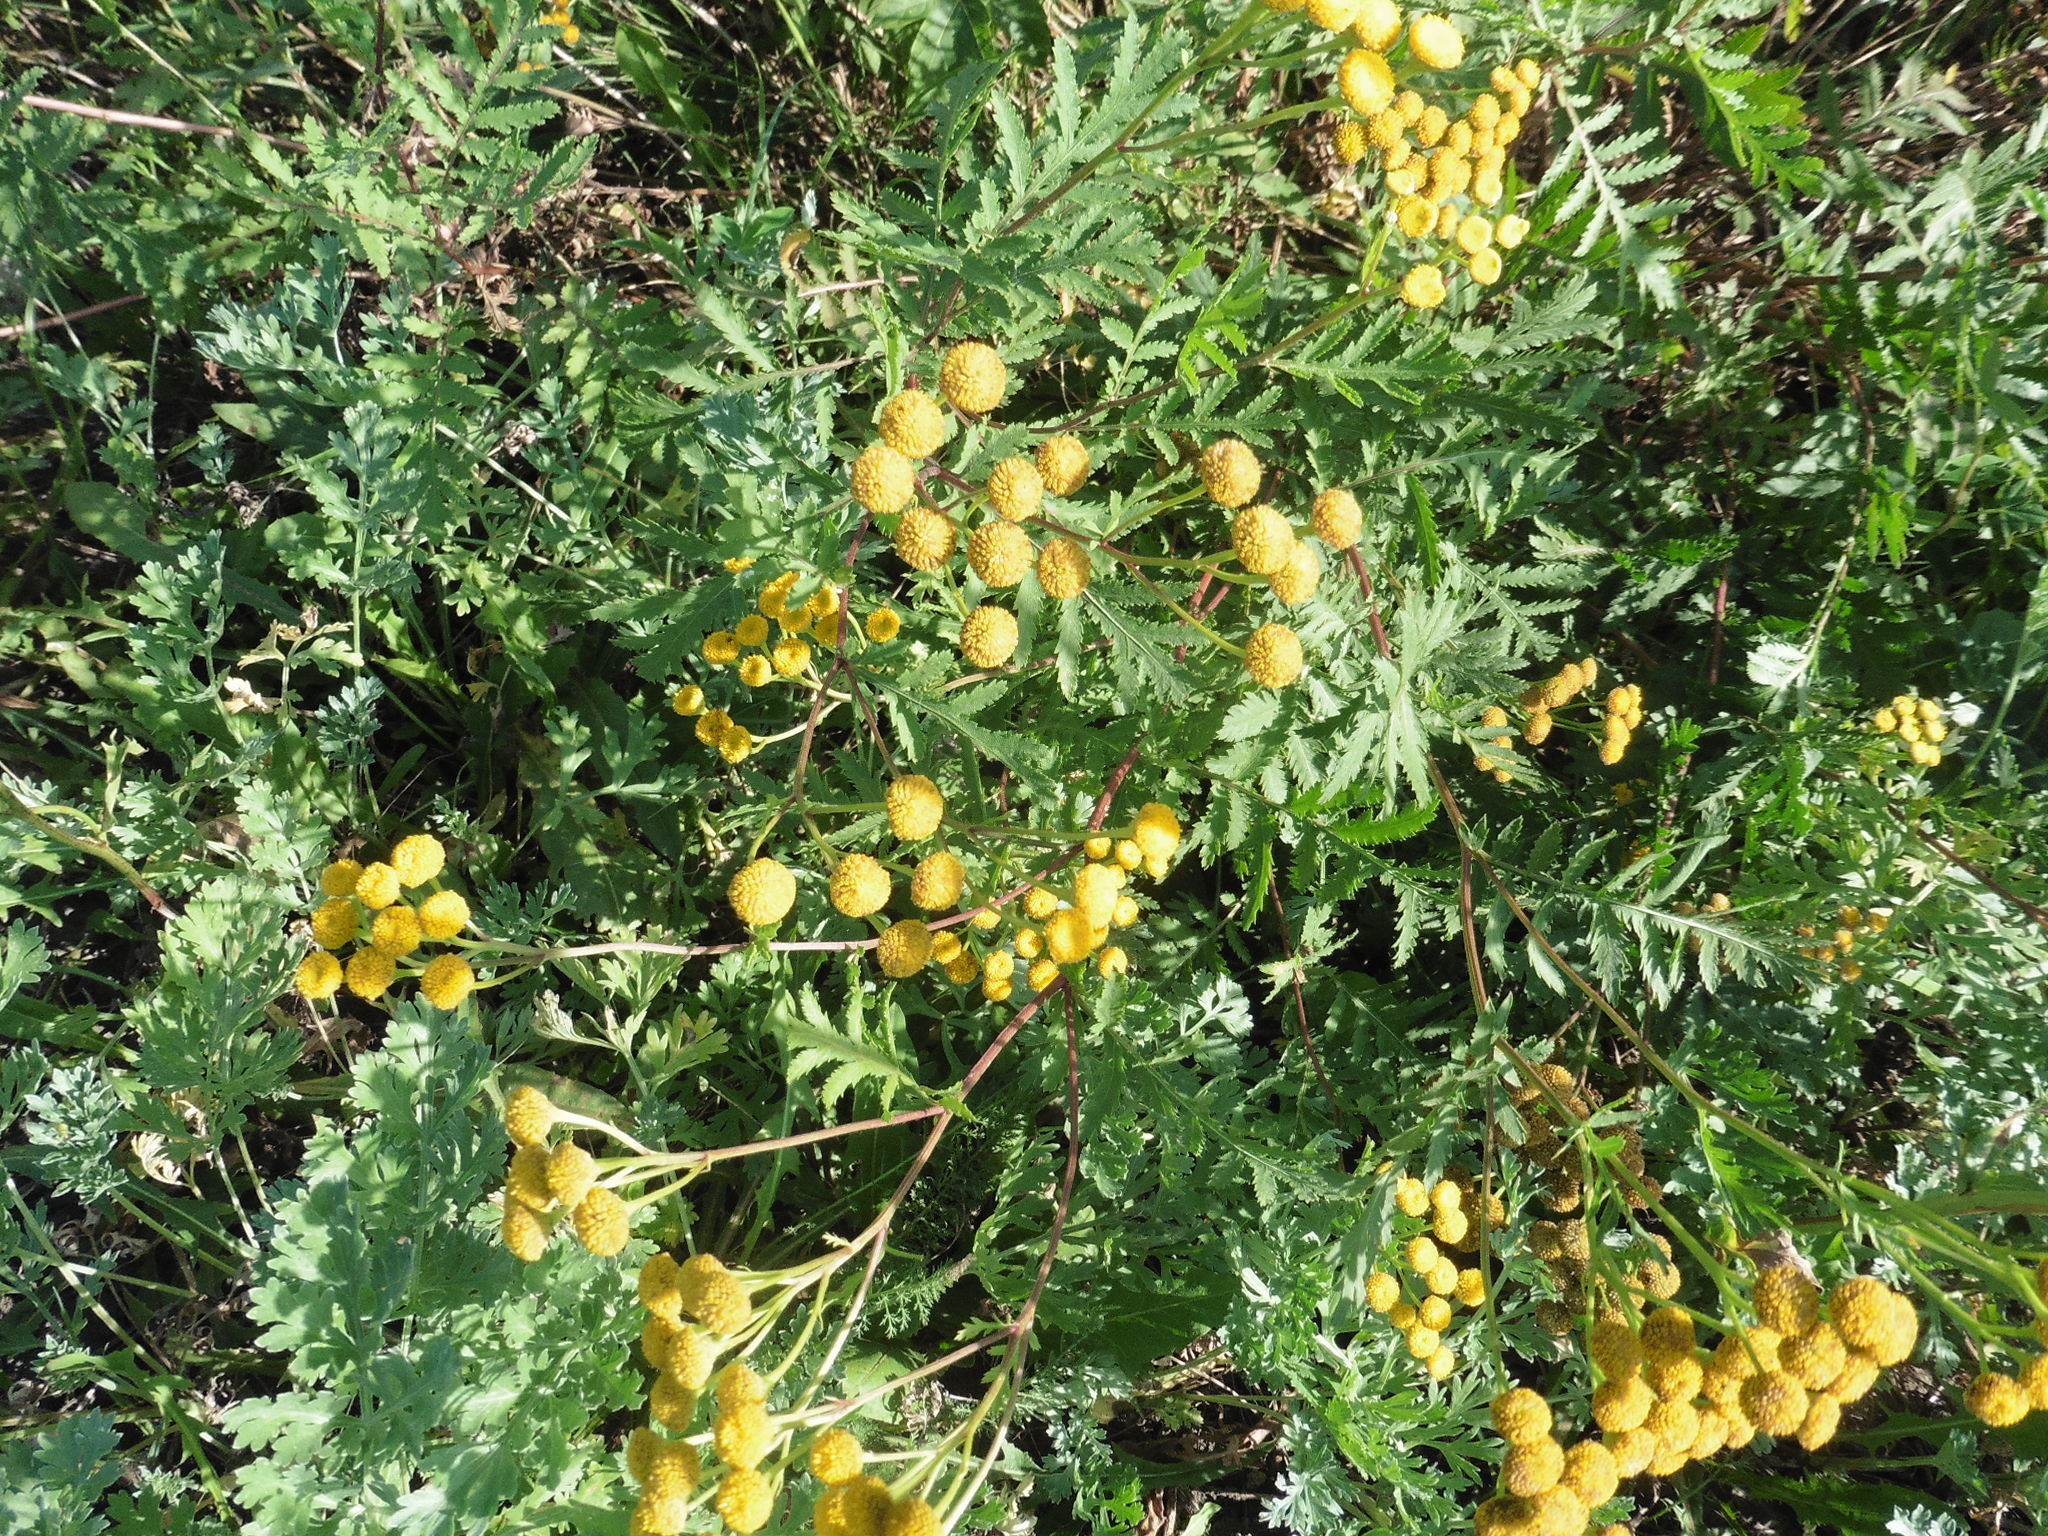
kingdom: Plantae
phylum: Tracheophyta
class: Magnoliopsida
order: Asterales
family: Asteraceae
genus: Tanacetum
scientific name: Tanacetum vulgare
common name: Common tansy
